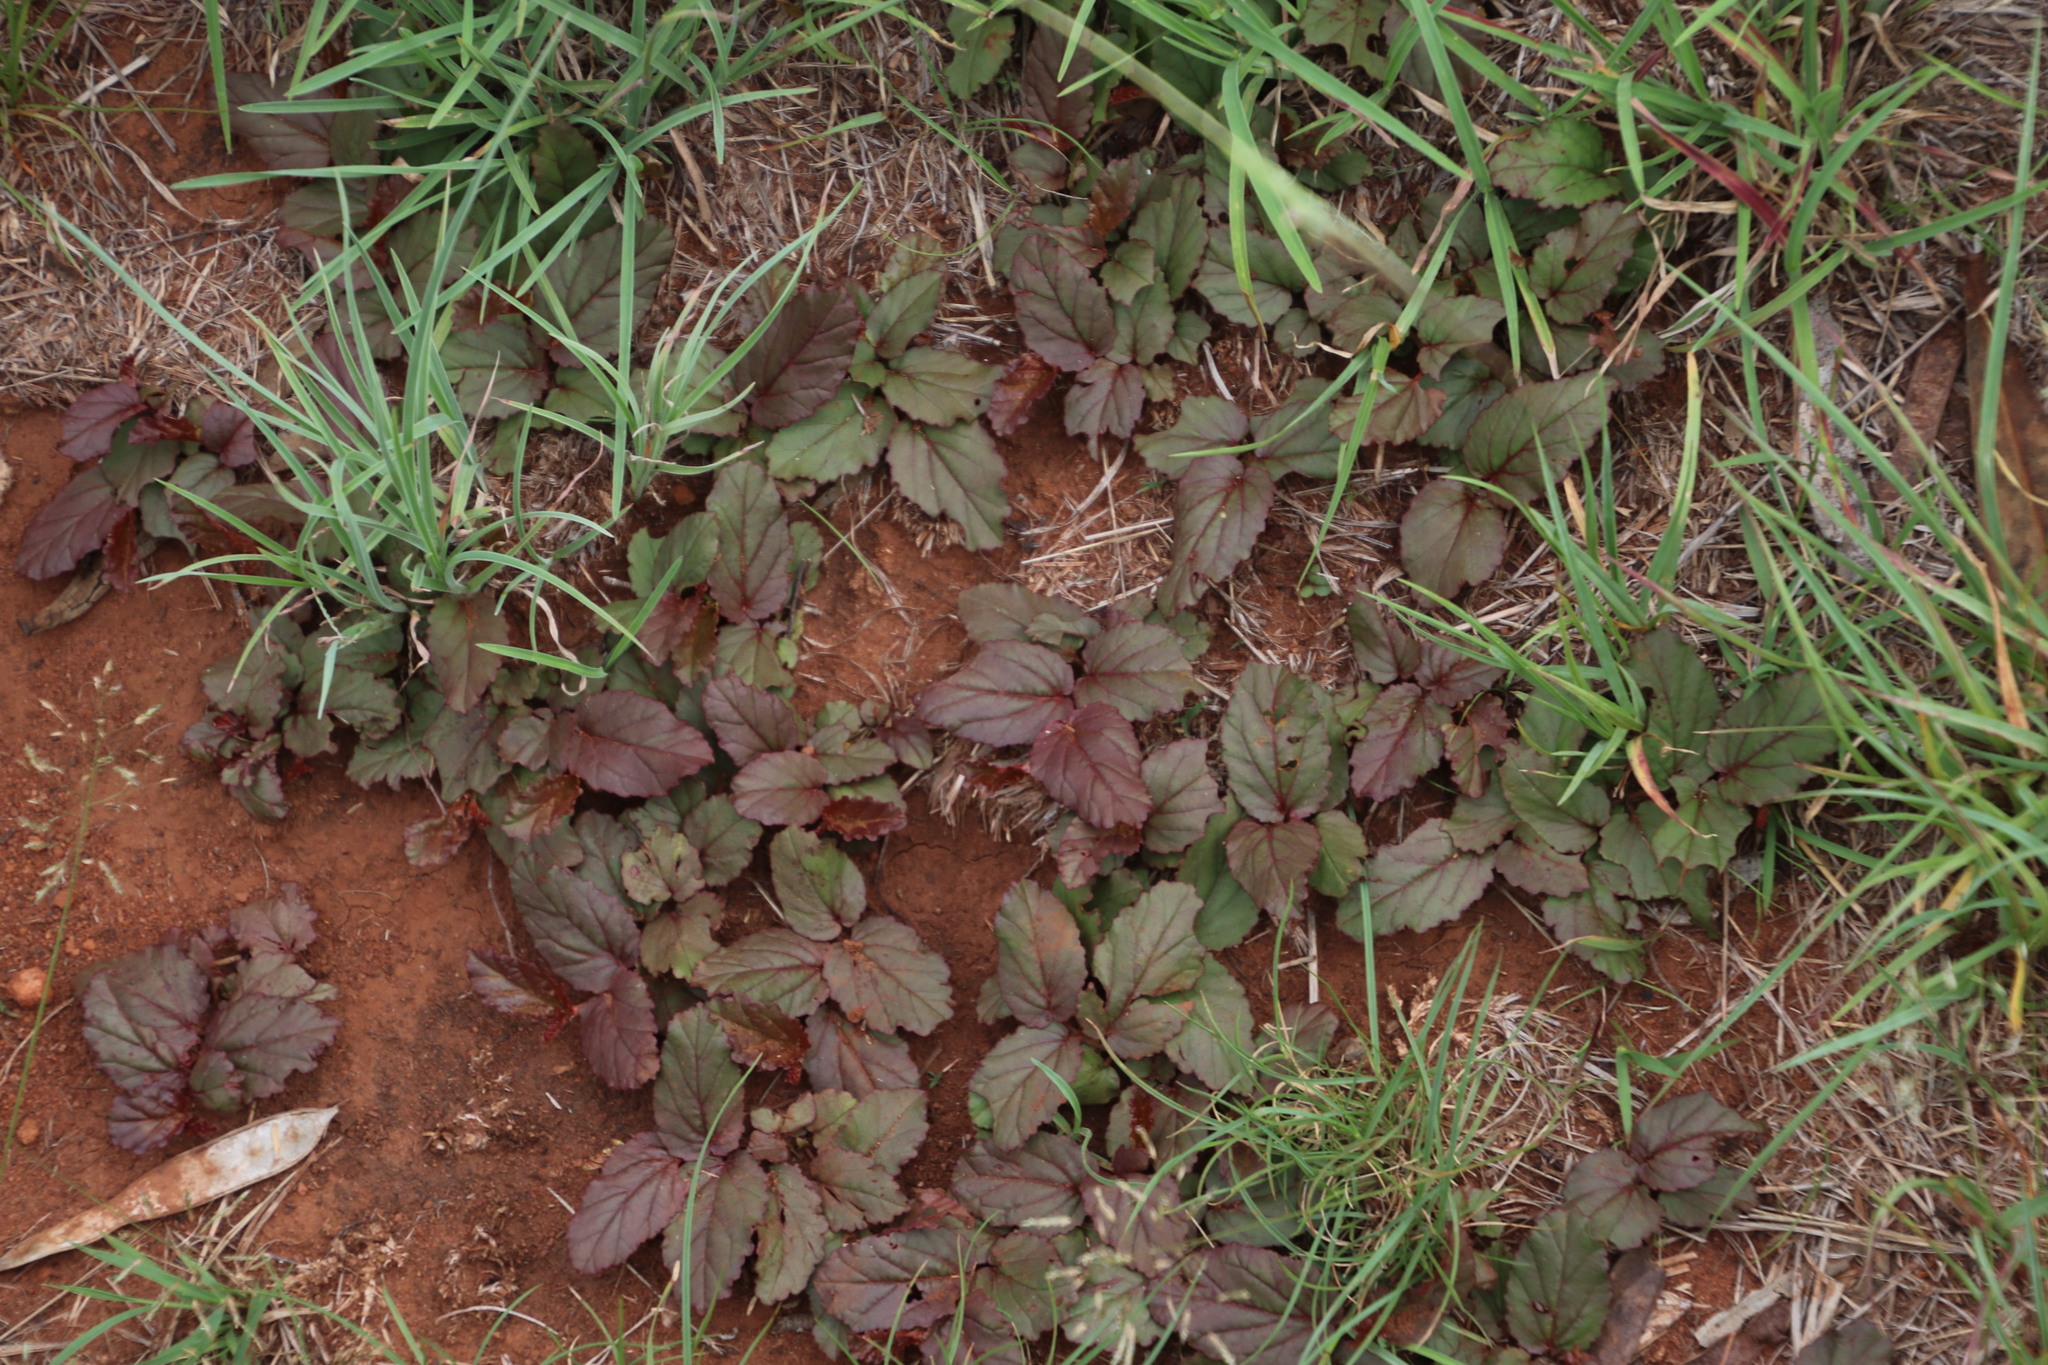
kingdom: Plantae
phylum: Tracheophyta
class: Magnoliopsida
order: Malvales
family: Malvaceae
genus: Hermannia
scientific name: Hermannia depressa
